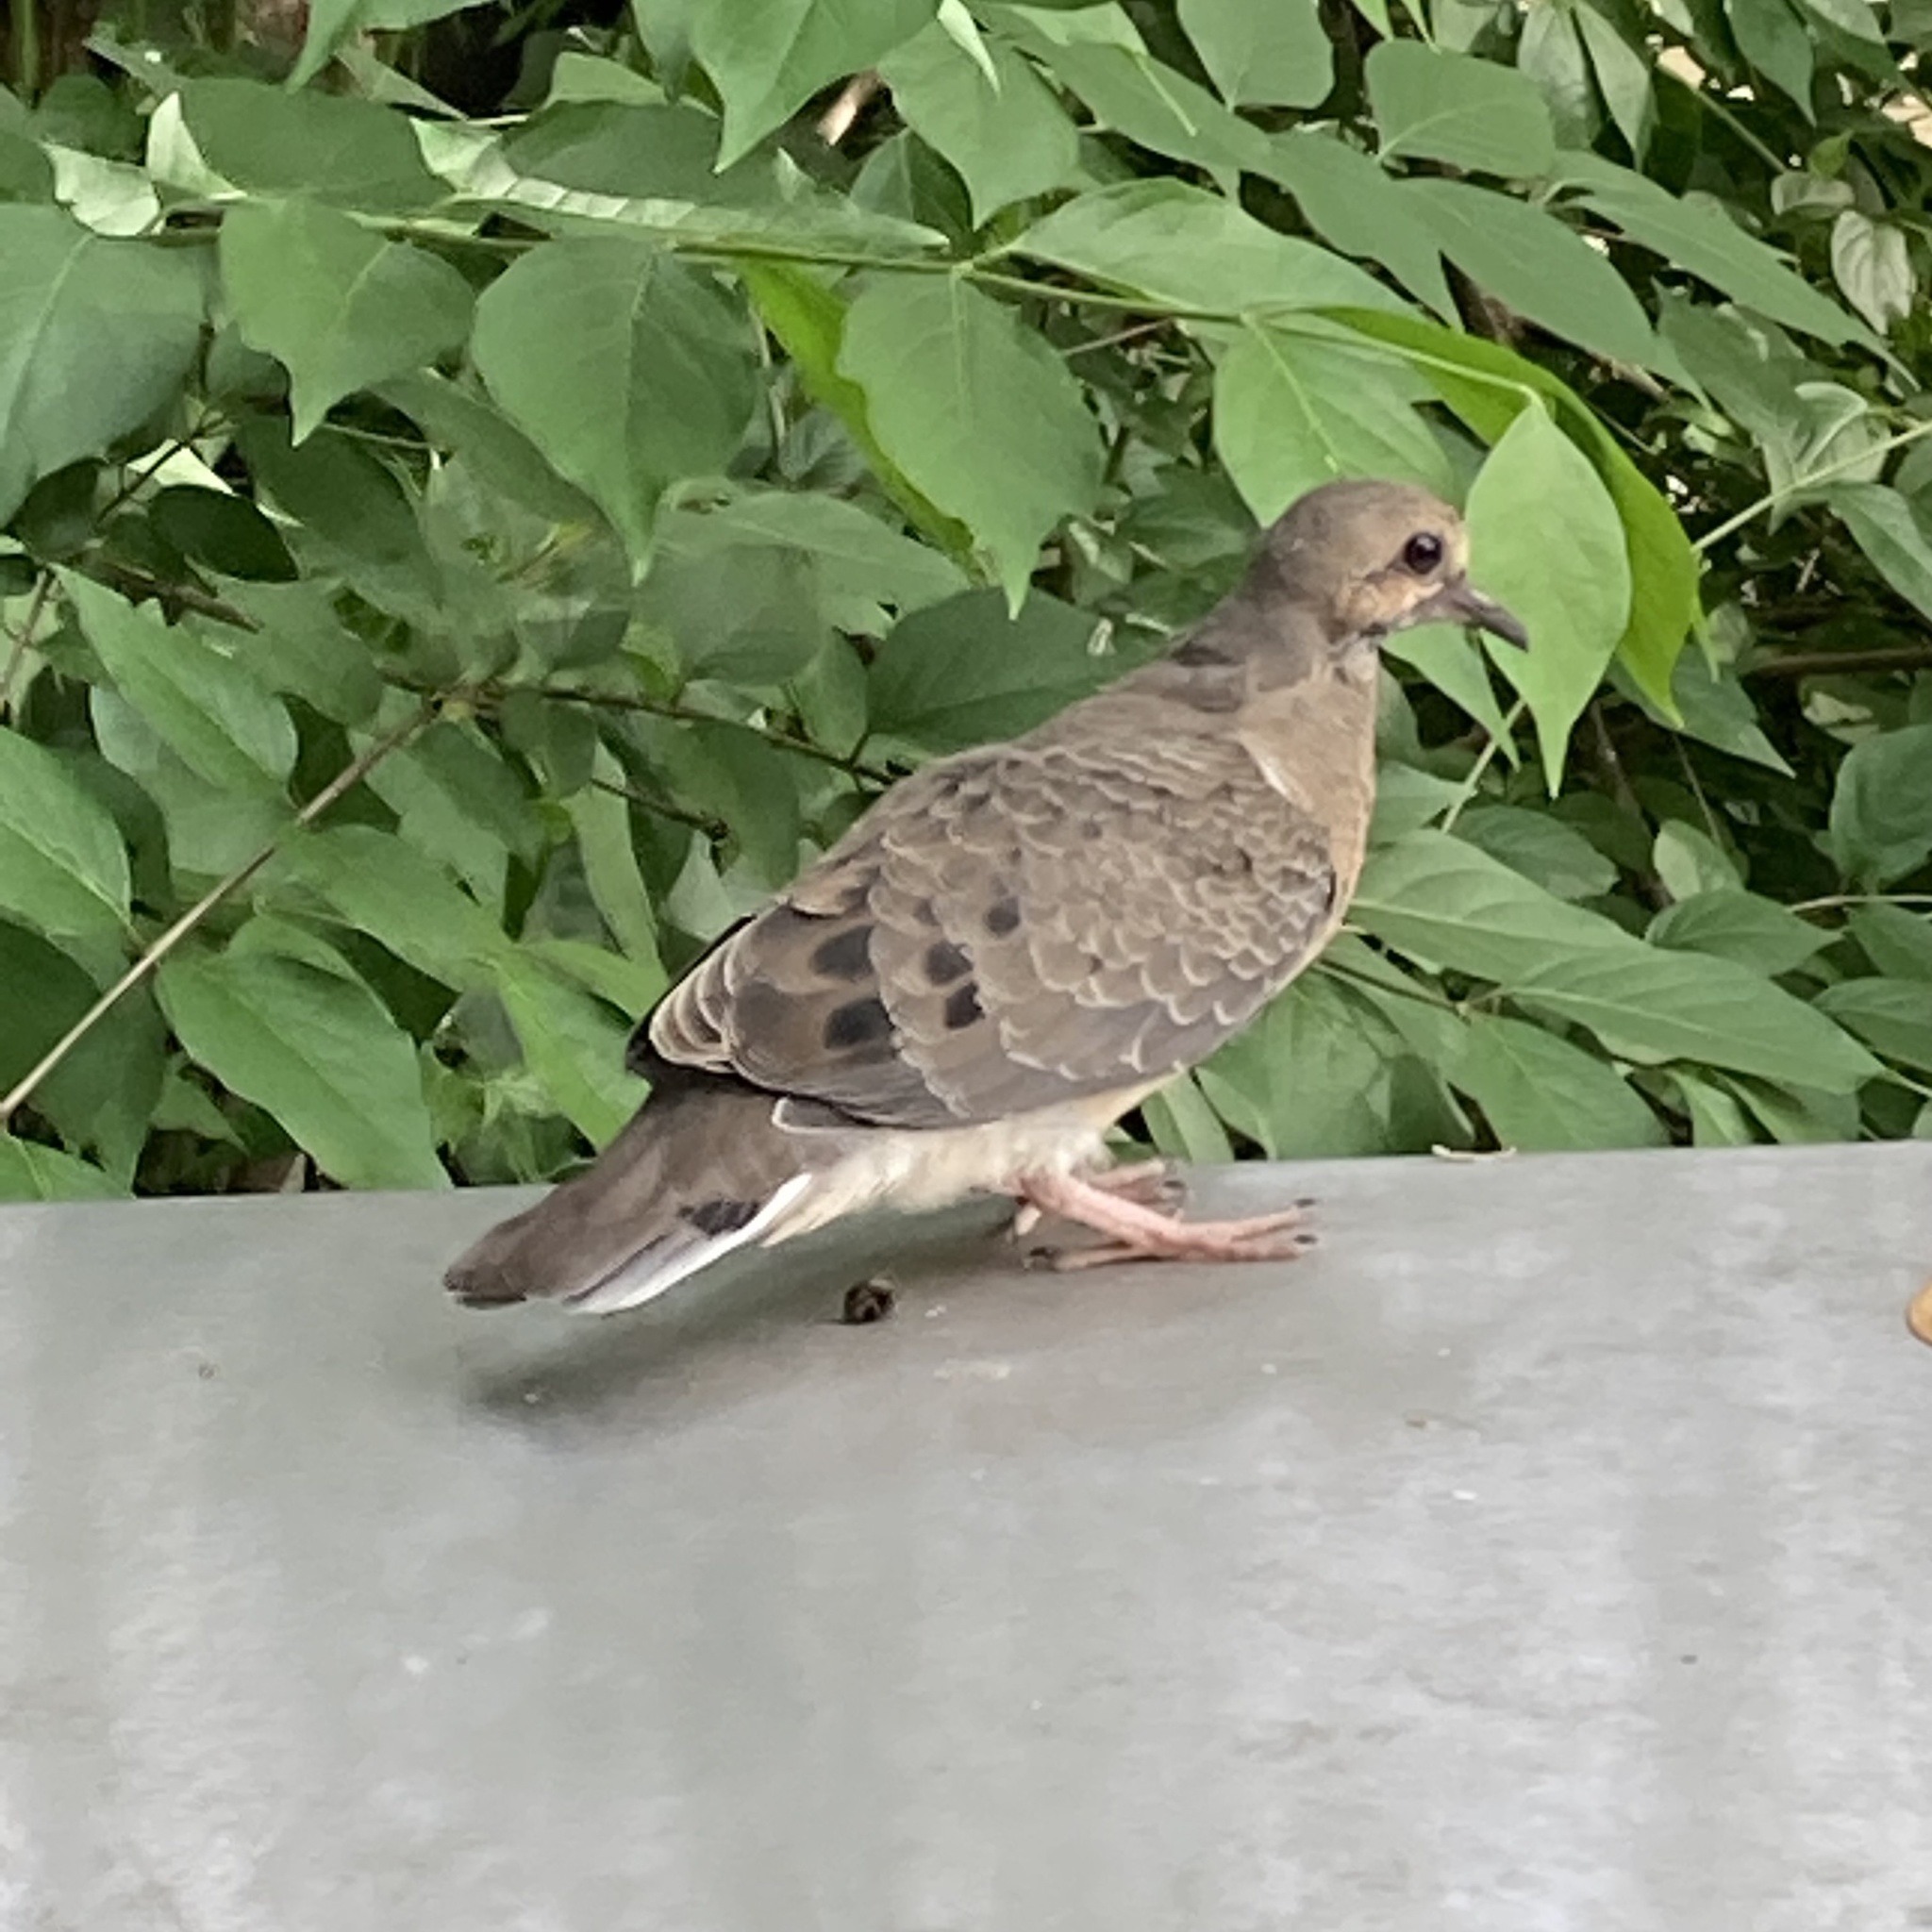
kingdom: Animalia
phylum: Chordata
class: Aves
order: Columbiformes
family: Columbidae
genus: Zenaida
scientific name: Zenaida macroura
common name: Mourning dove
